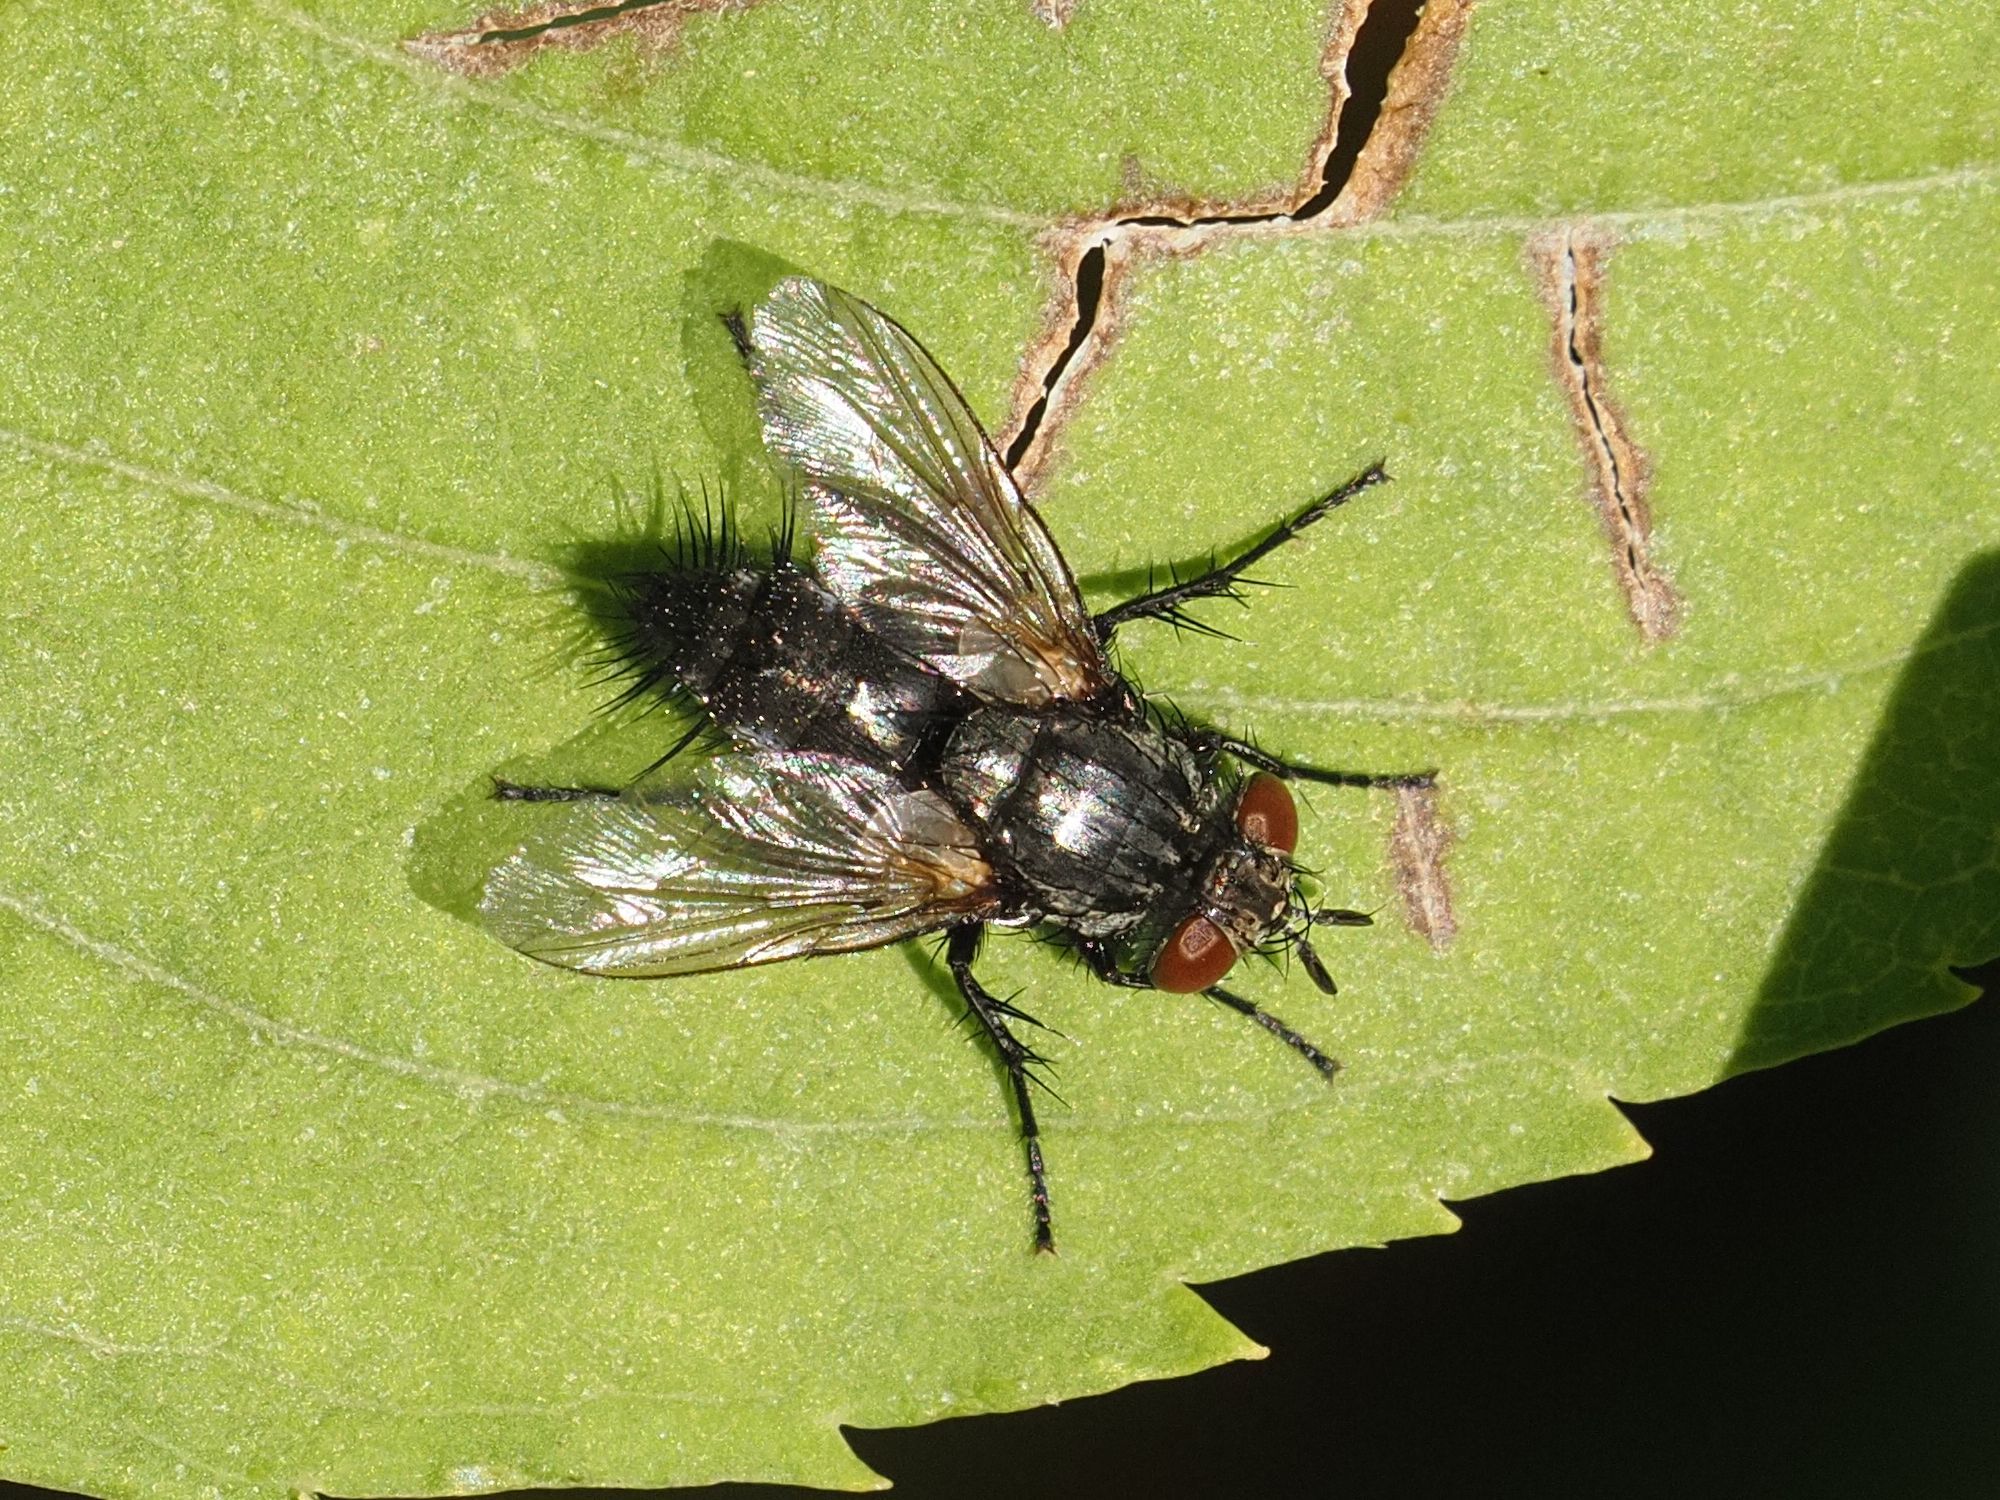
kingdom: Animalia
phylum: Arthropoda
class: Insecta
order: Diptera
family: Tachinidae
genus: Voria
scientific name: Voria ruralis
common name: Parasitic fly
